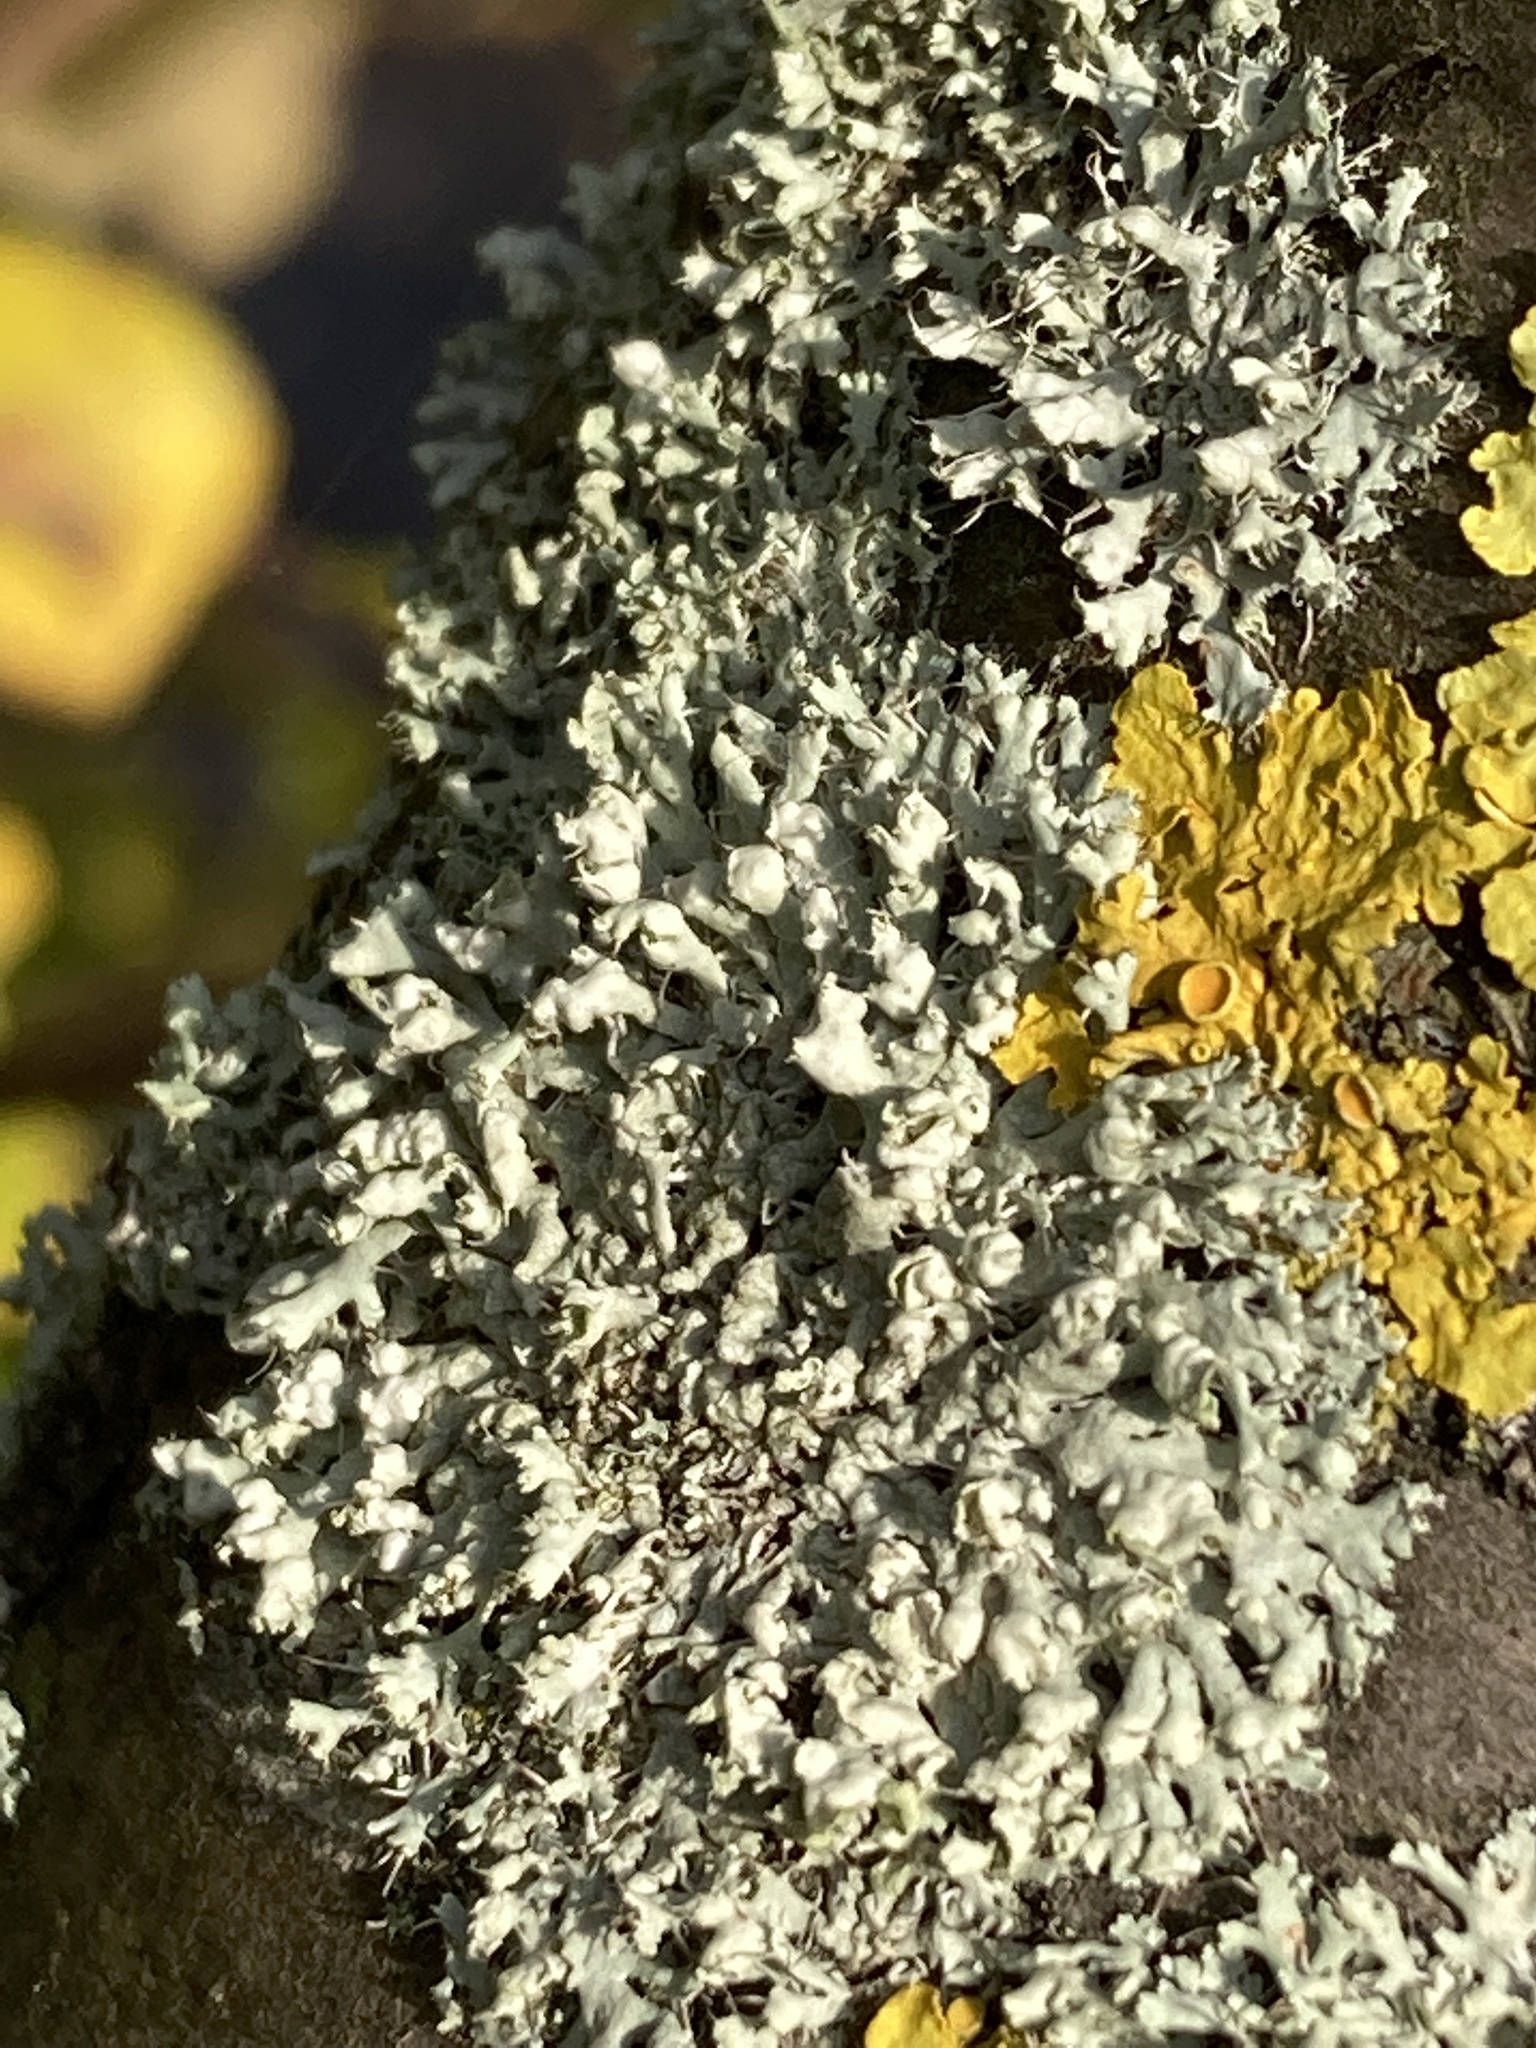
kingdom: Fungi
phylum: Ascomycota
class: Lecanoromycetes
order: Caliciales
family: Physciaceae
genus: Physcia
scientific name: Physcia adscendens
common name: Hooded rosette lichen
